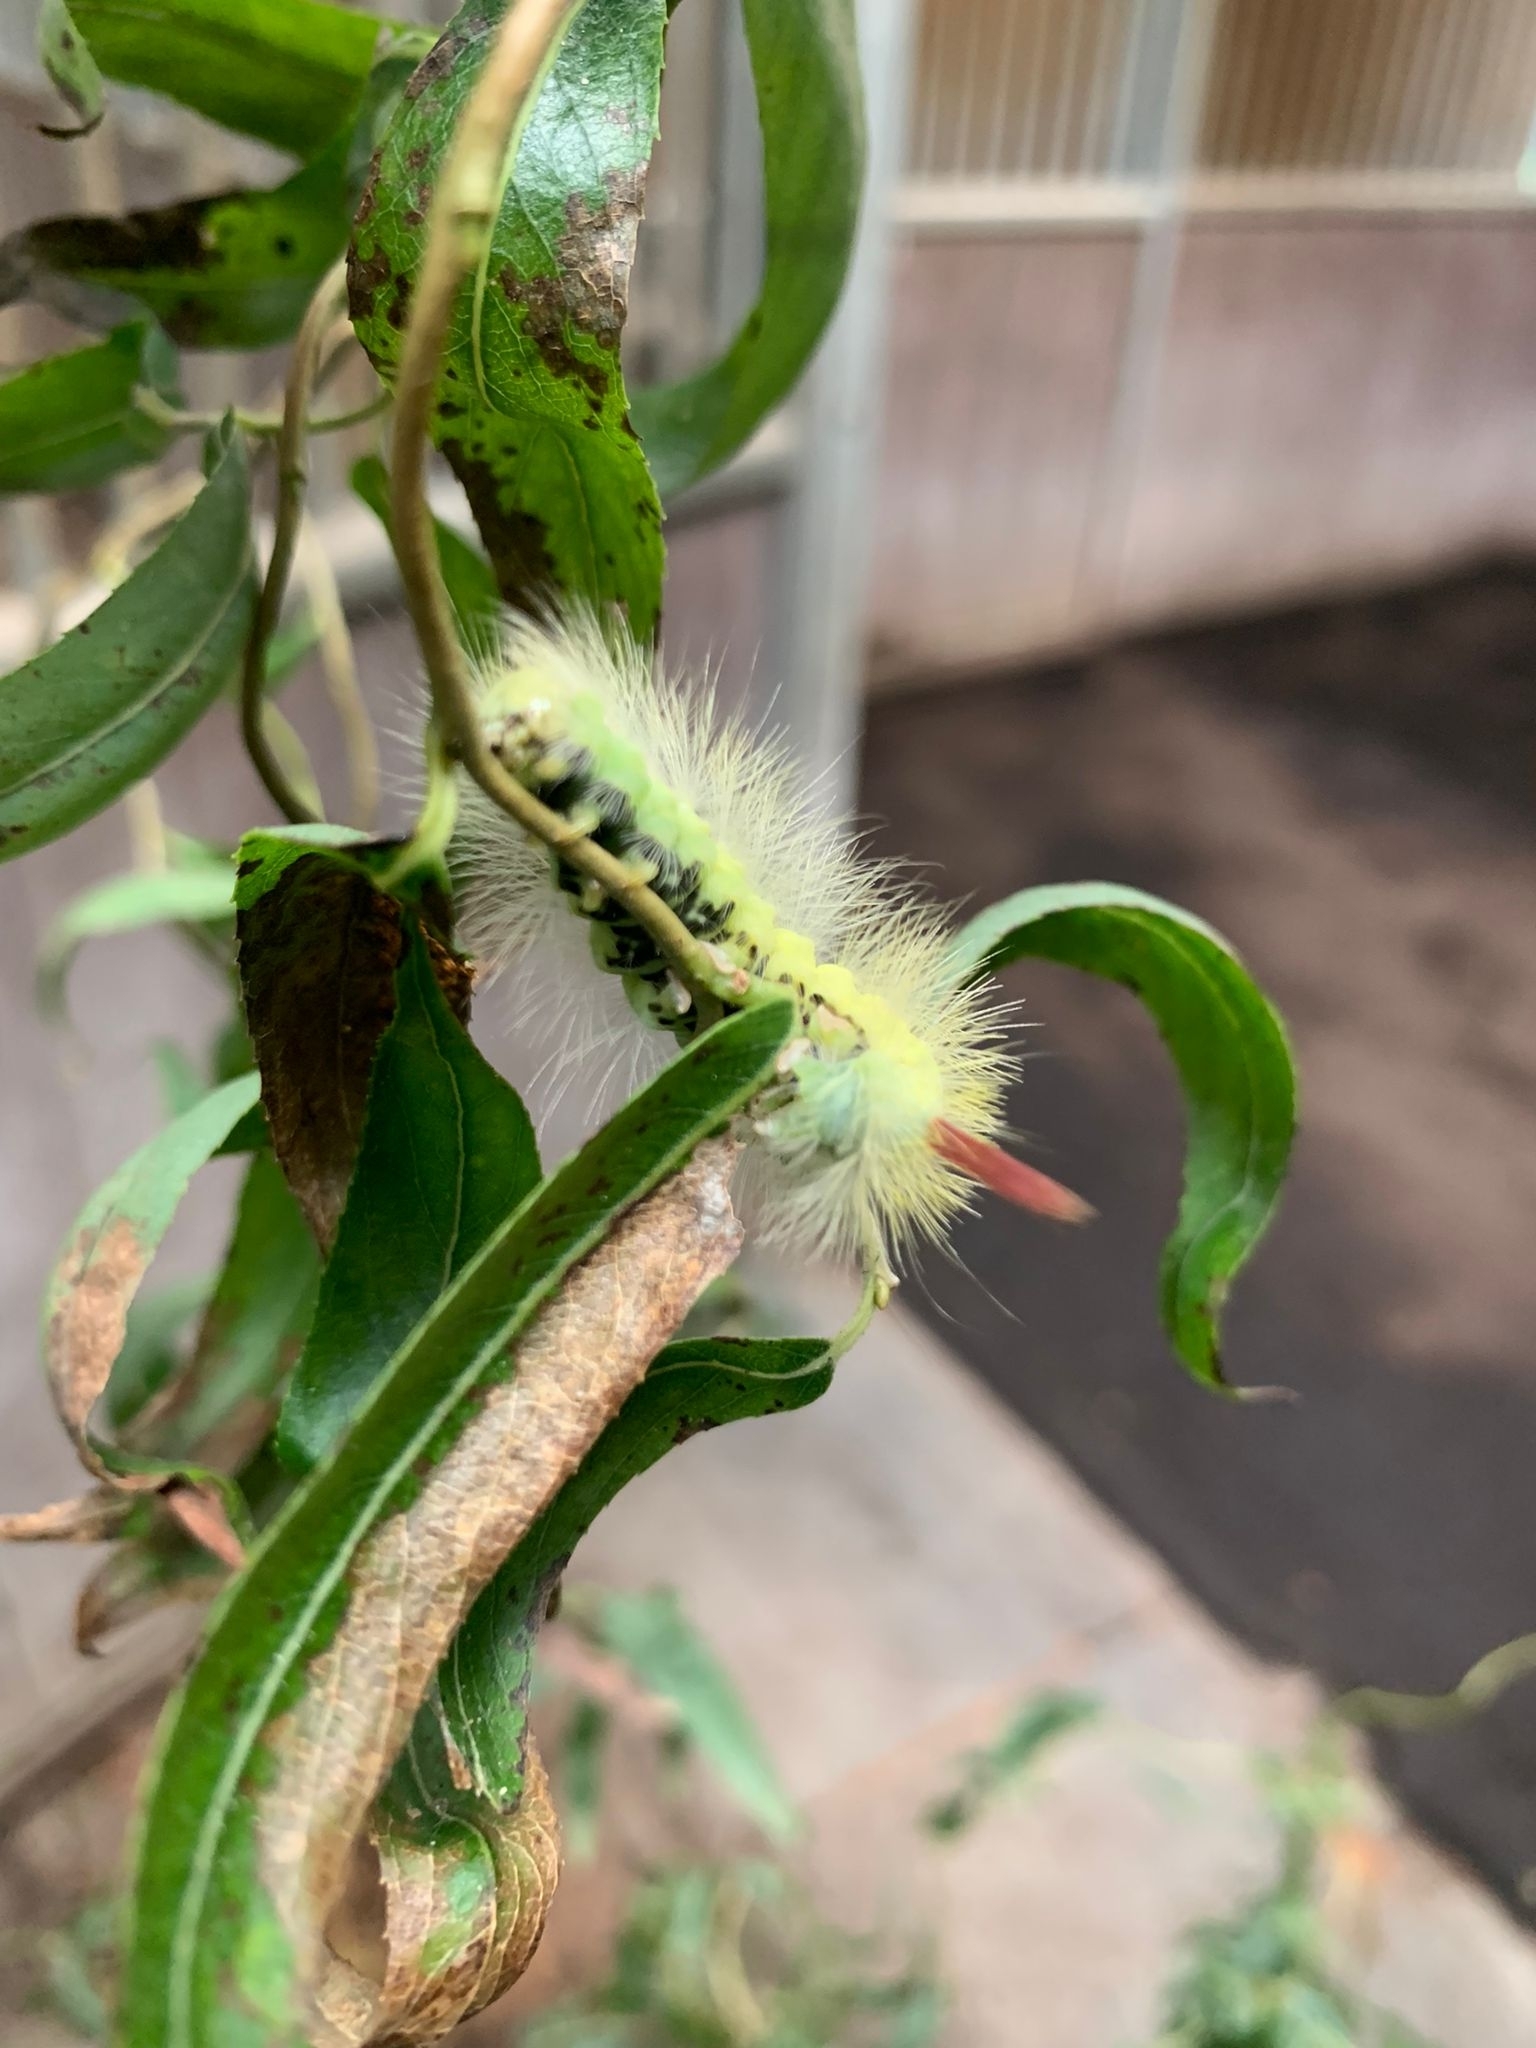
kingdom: Animalia
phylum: Arthropoda
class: Insecta
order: Lepidoptera
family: Erebidae
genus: Calliteara
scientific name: Calliteara pudibunda
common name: Pale tussock
